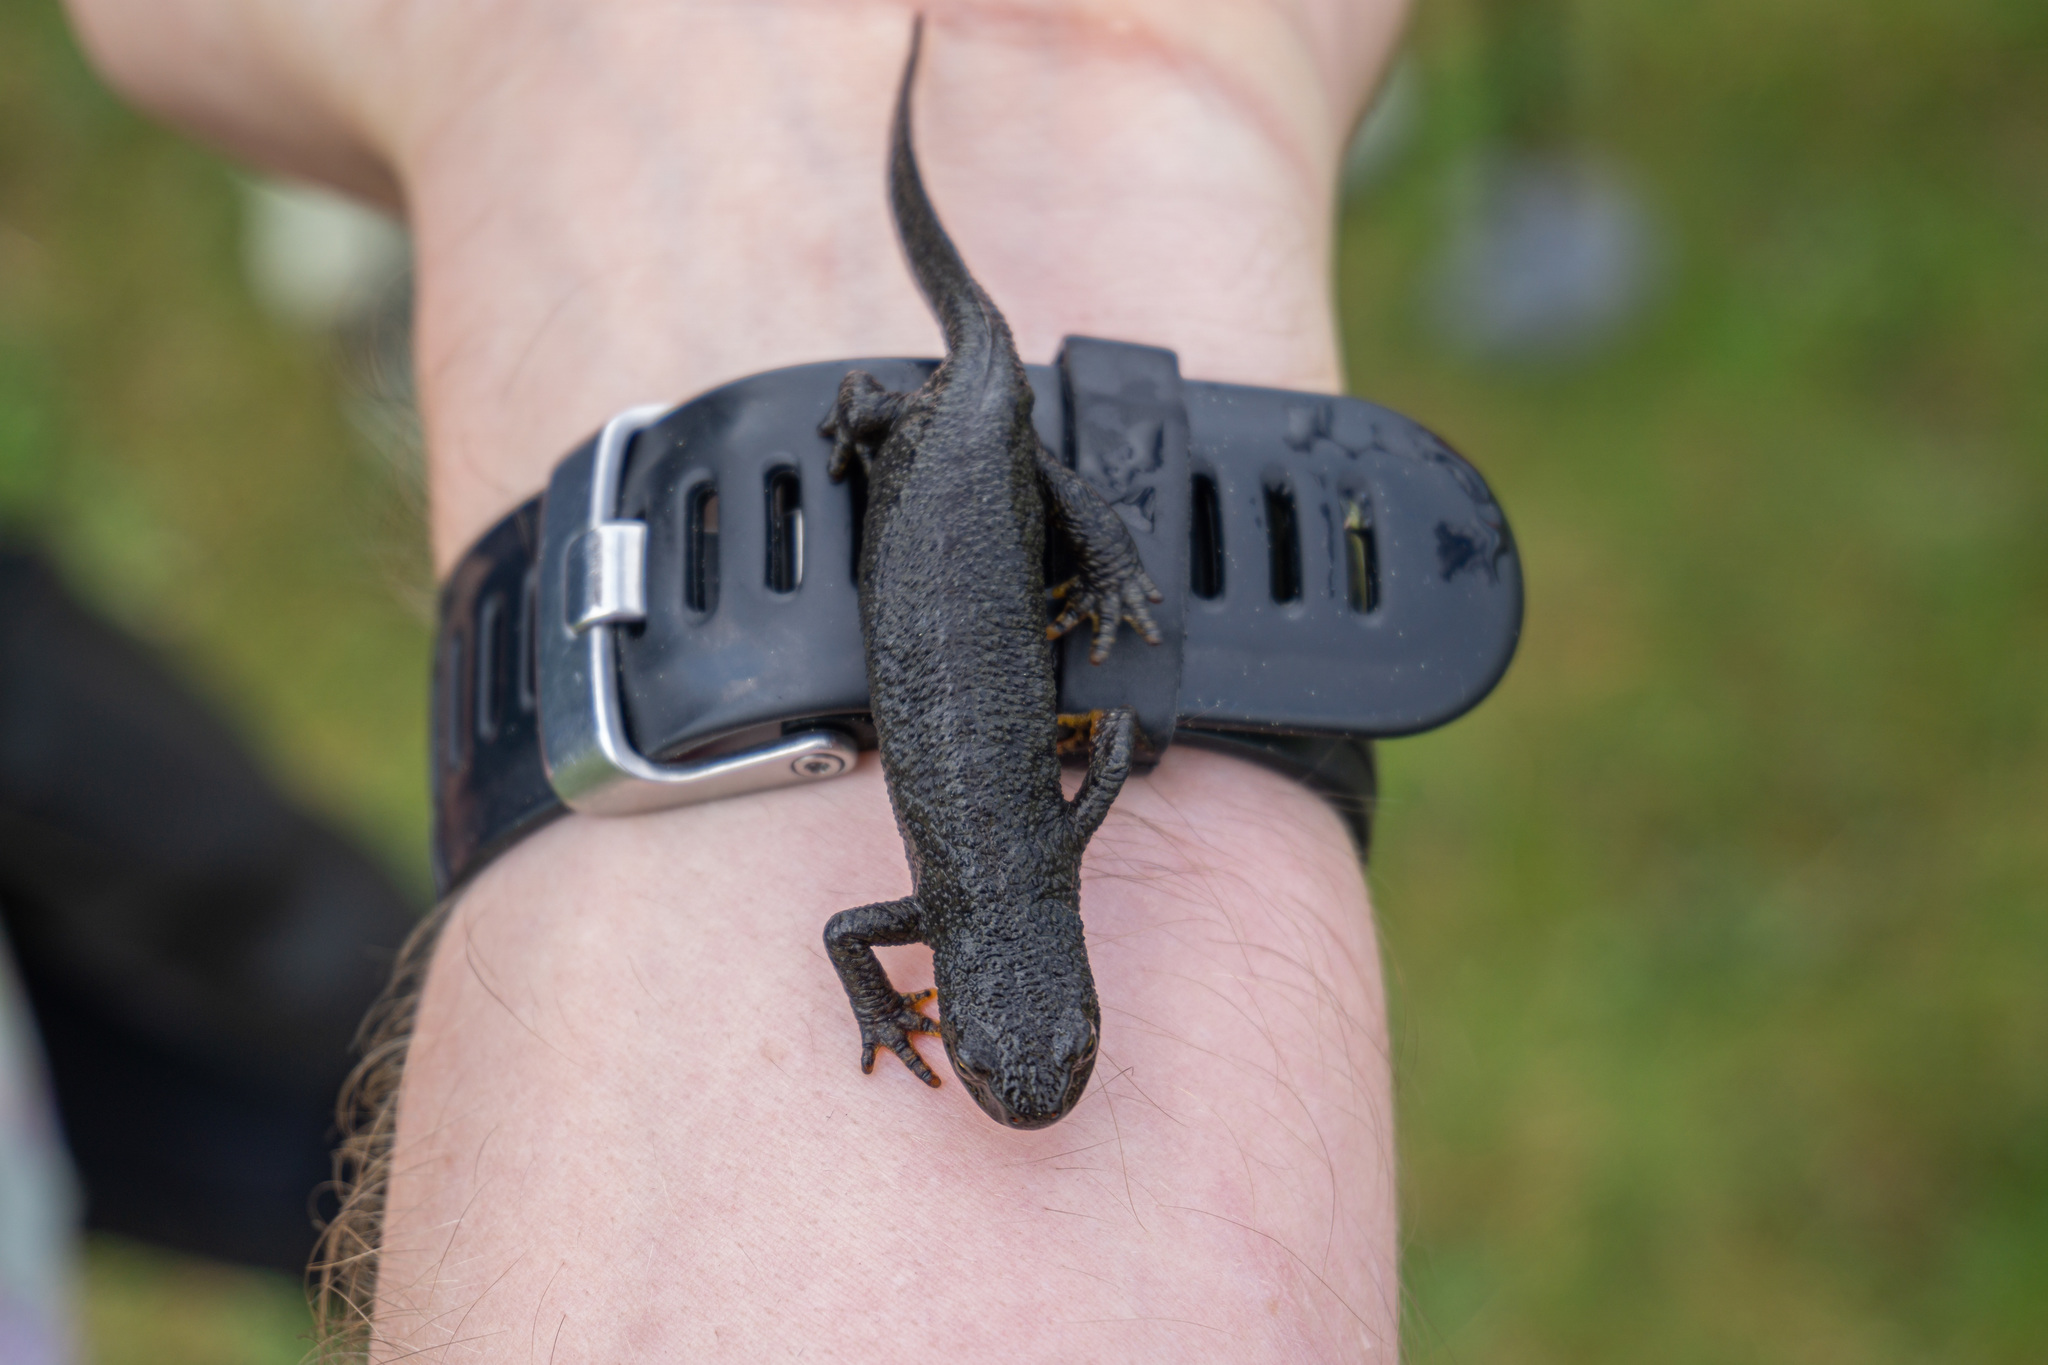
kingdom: Animalia
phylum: Chordata
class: Amphibia
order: Caudata
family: Salamandridae
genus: Ichthyosaura
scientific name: Ichthyosaura alpestris
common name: Alpine newt
